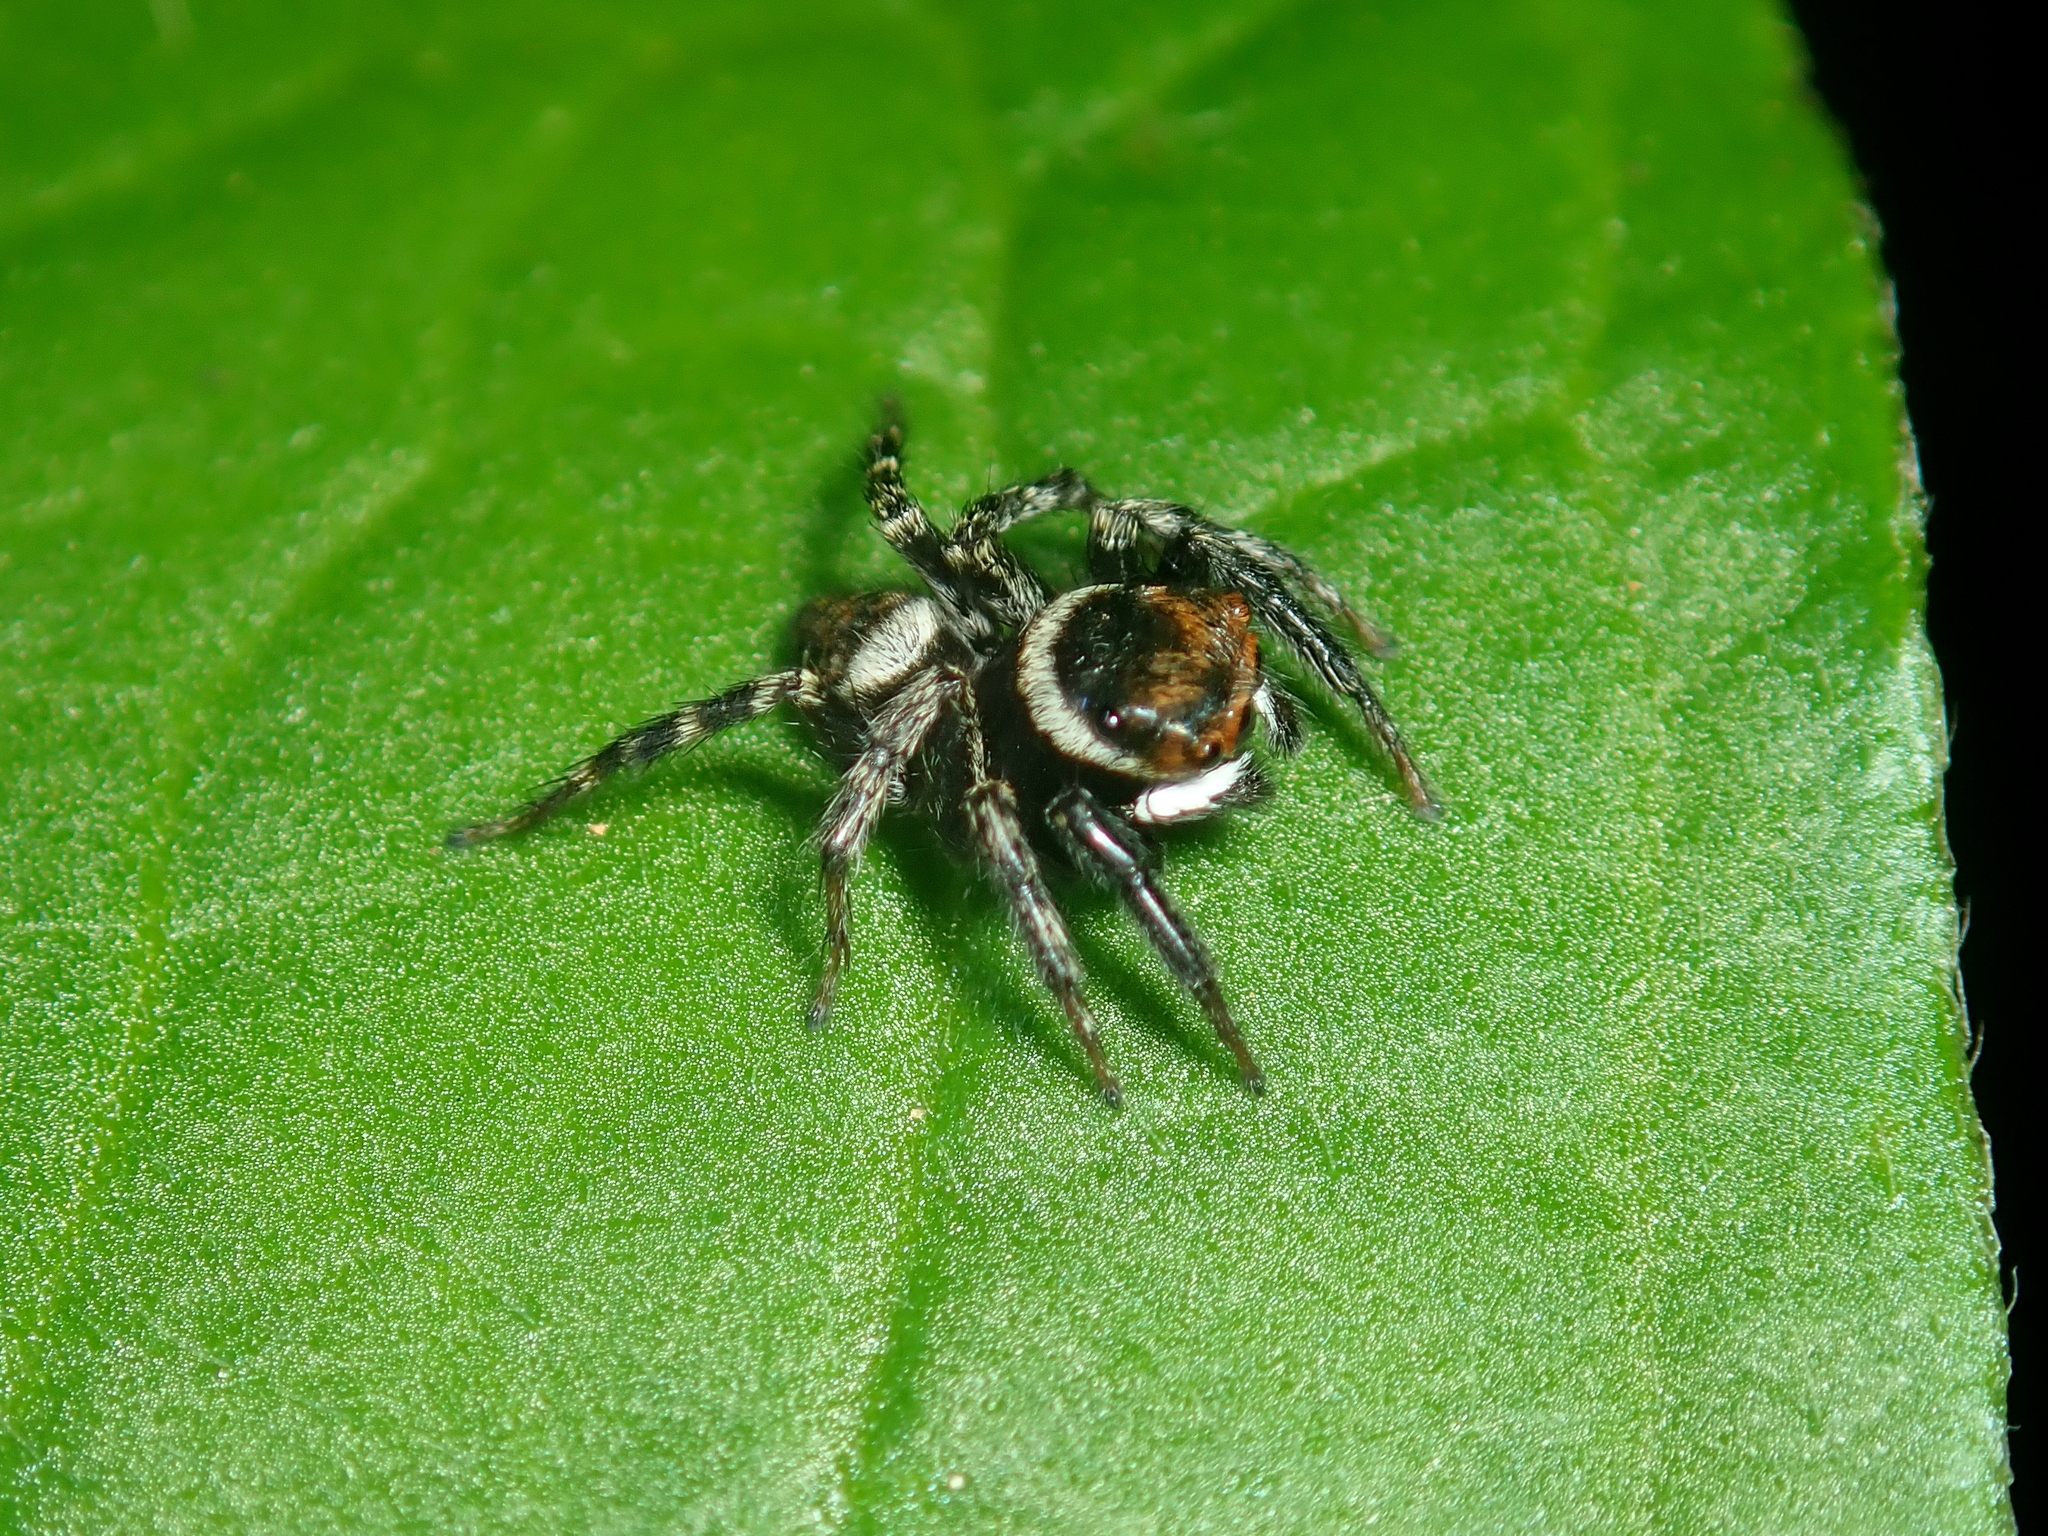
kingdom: Animalia
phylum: Arthropoda
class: Arachnida
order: Araneae
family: Salticidae
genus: Hasarius
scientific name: Hasarius adansoni
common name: Jumping spider
